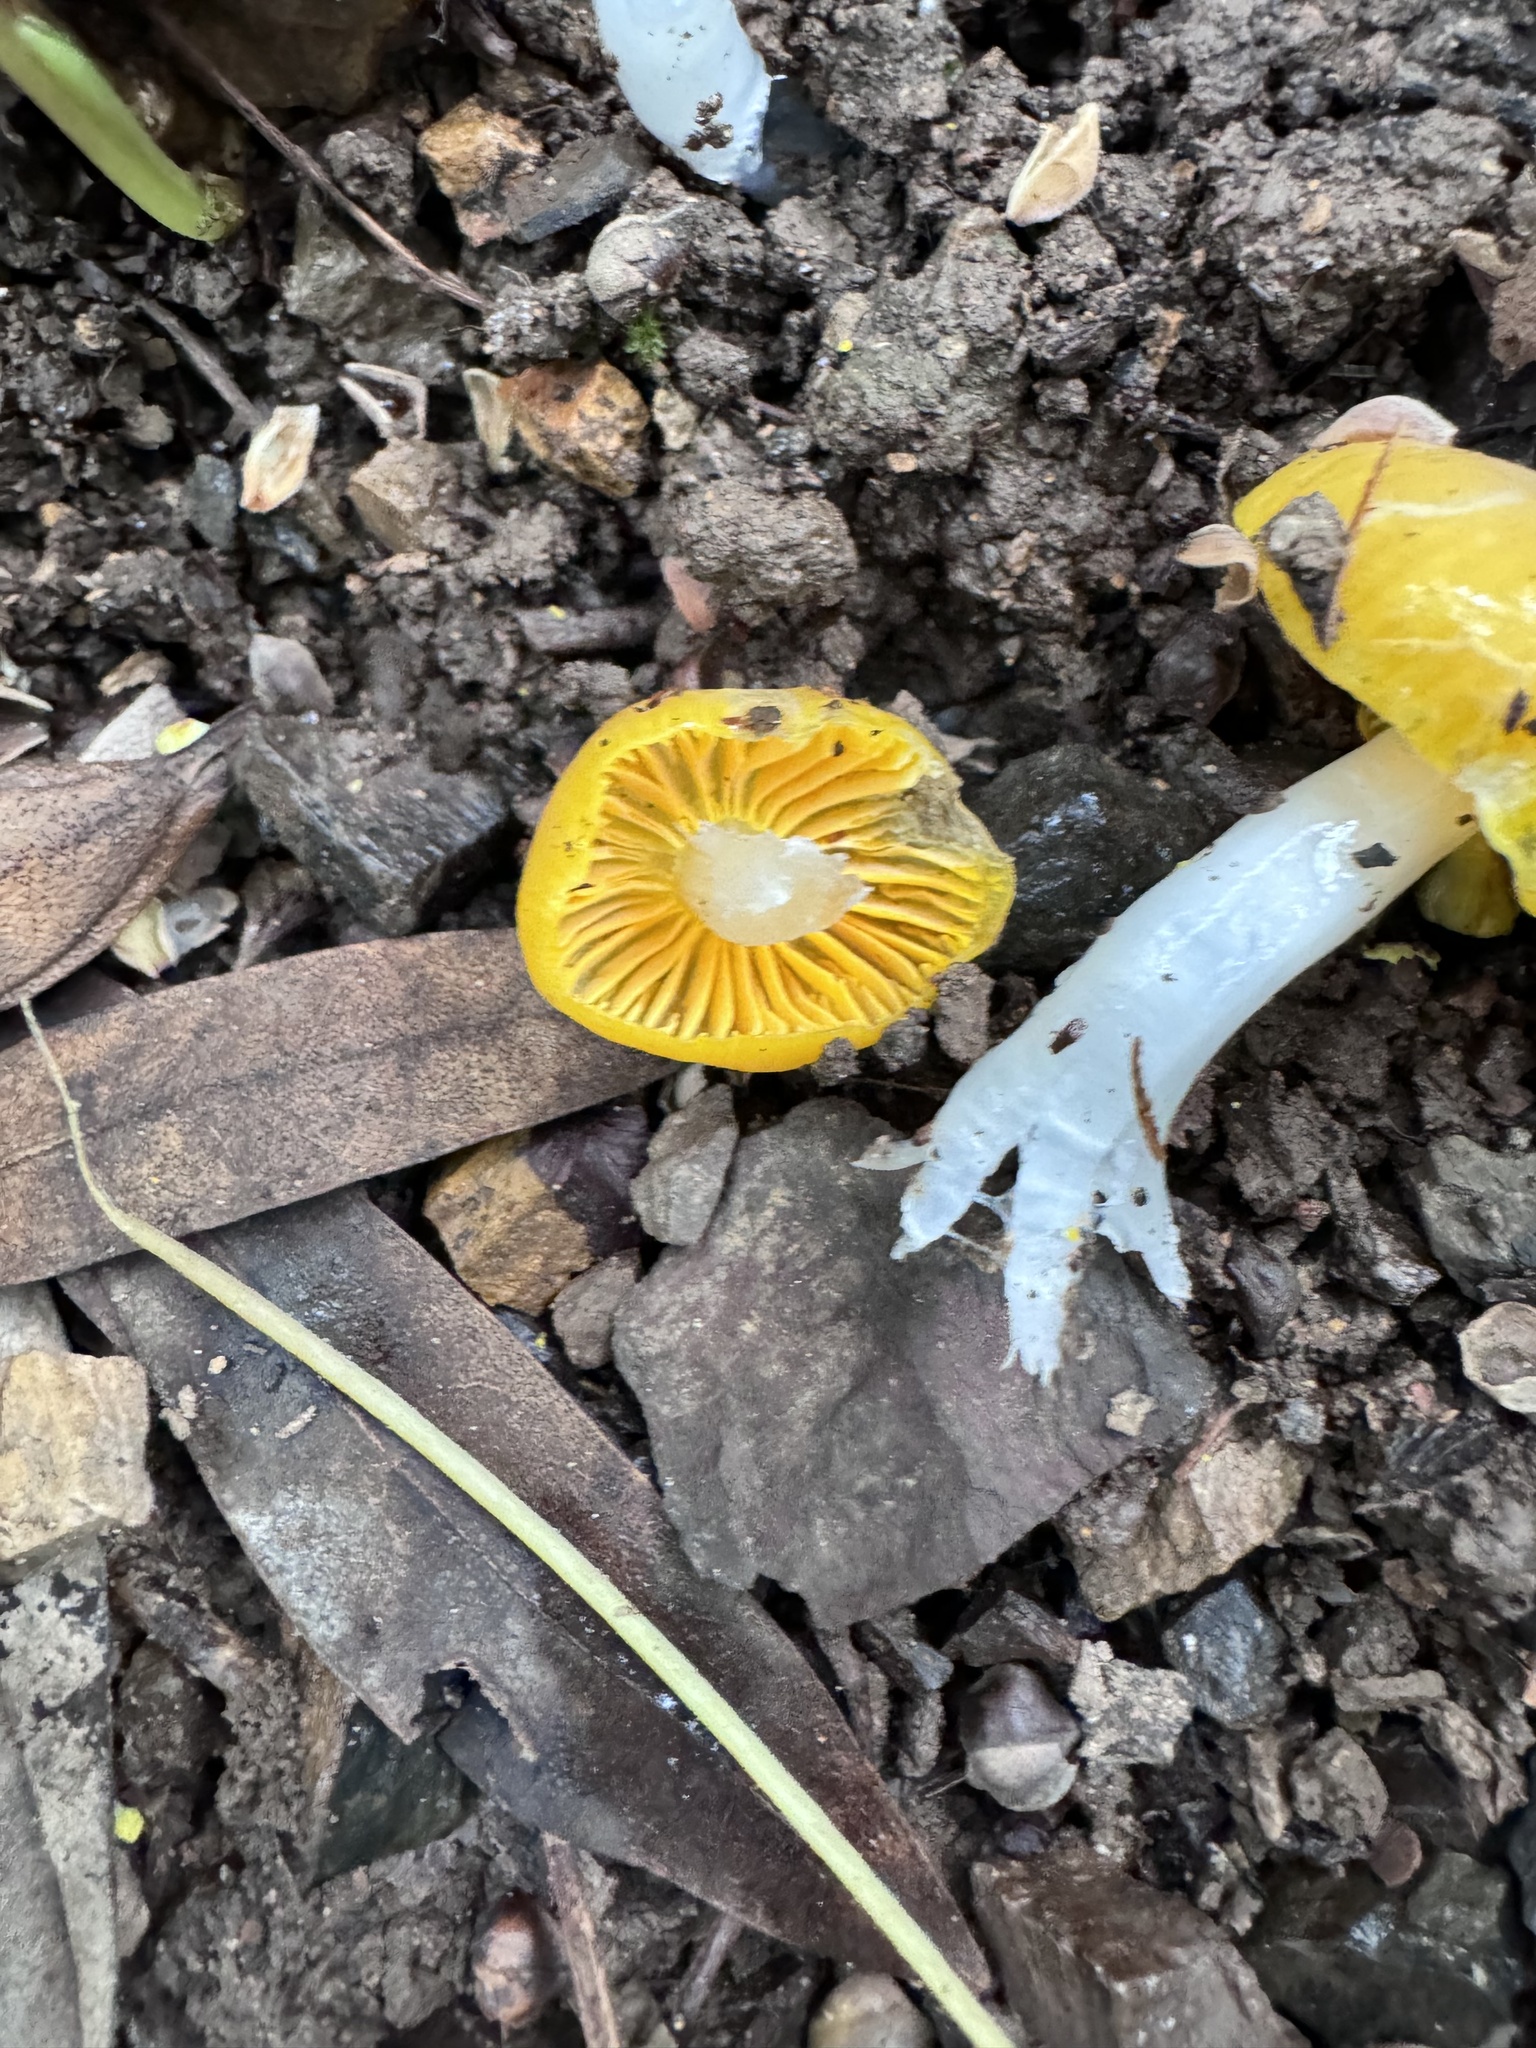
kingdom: Fungi
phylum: Basidiomycota
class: Agaricomycetes
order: Agaricales
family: Hygrophoraceae
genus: Hygrocybe
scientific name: Hygrocybe flavifolia
